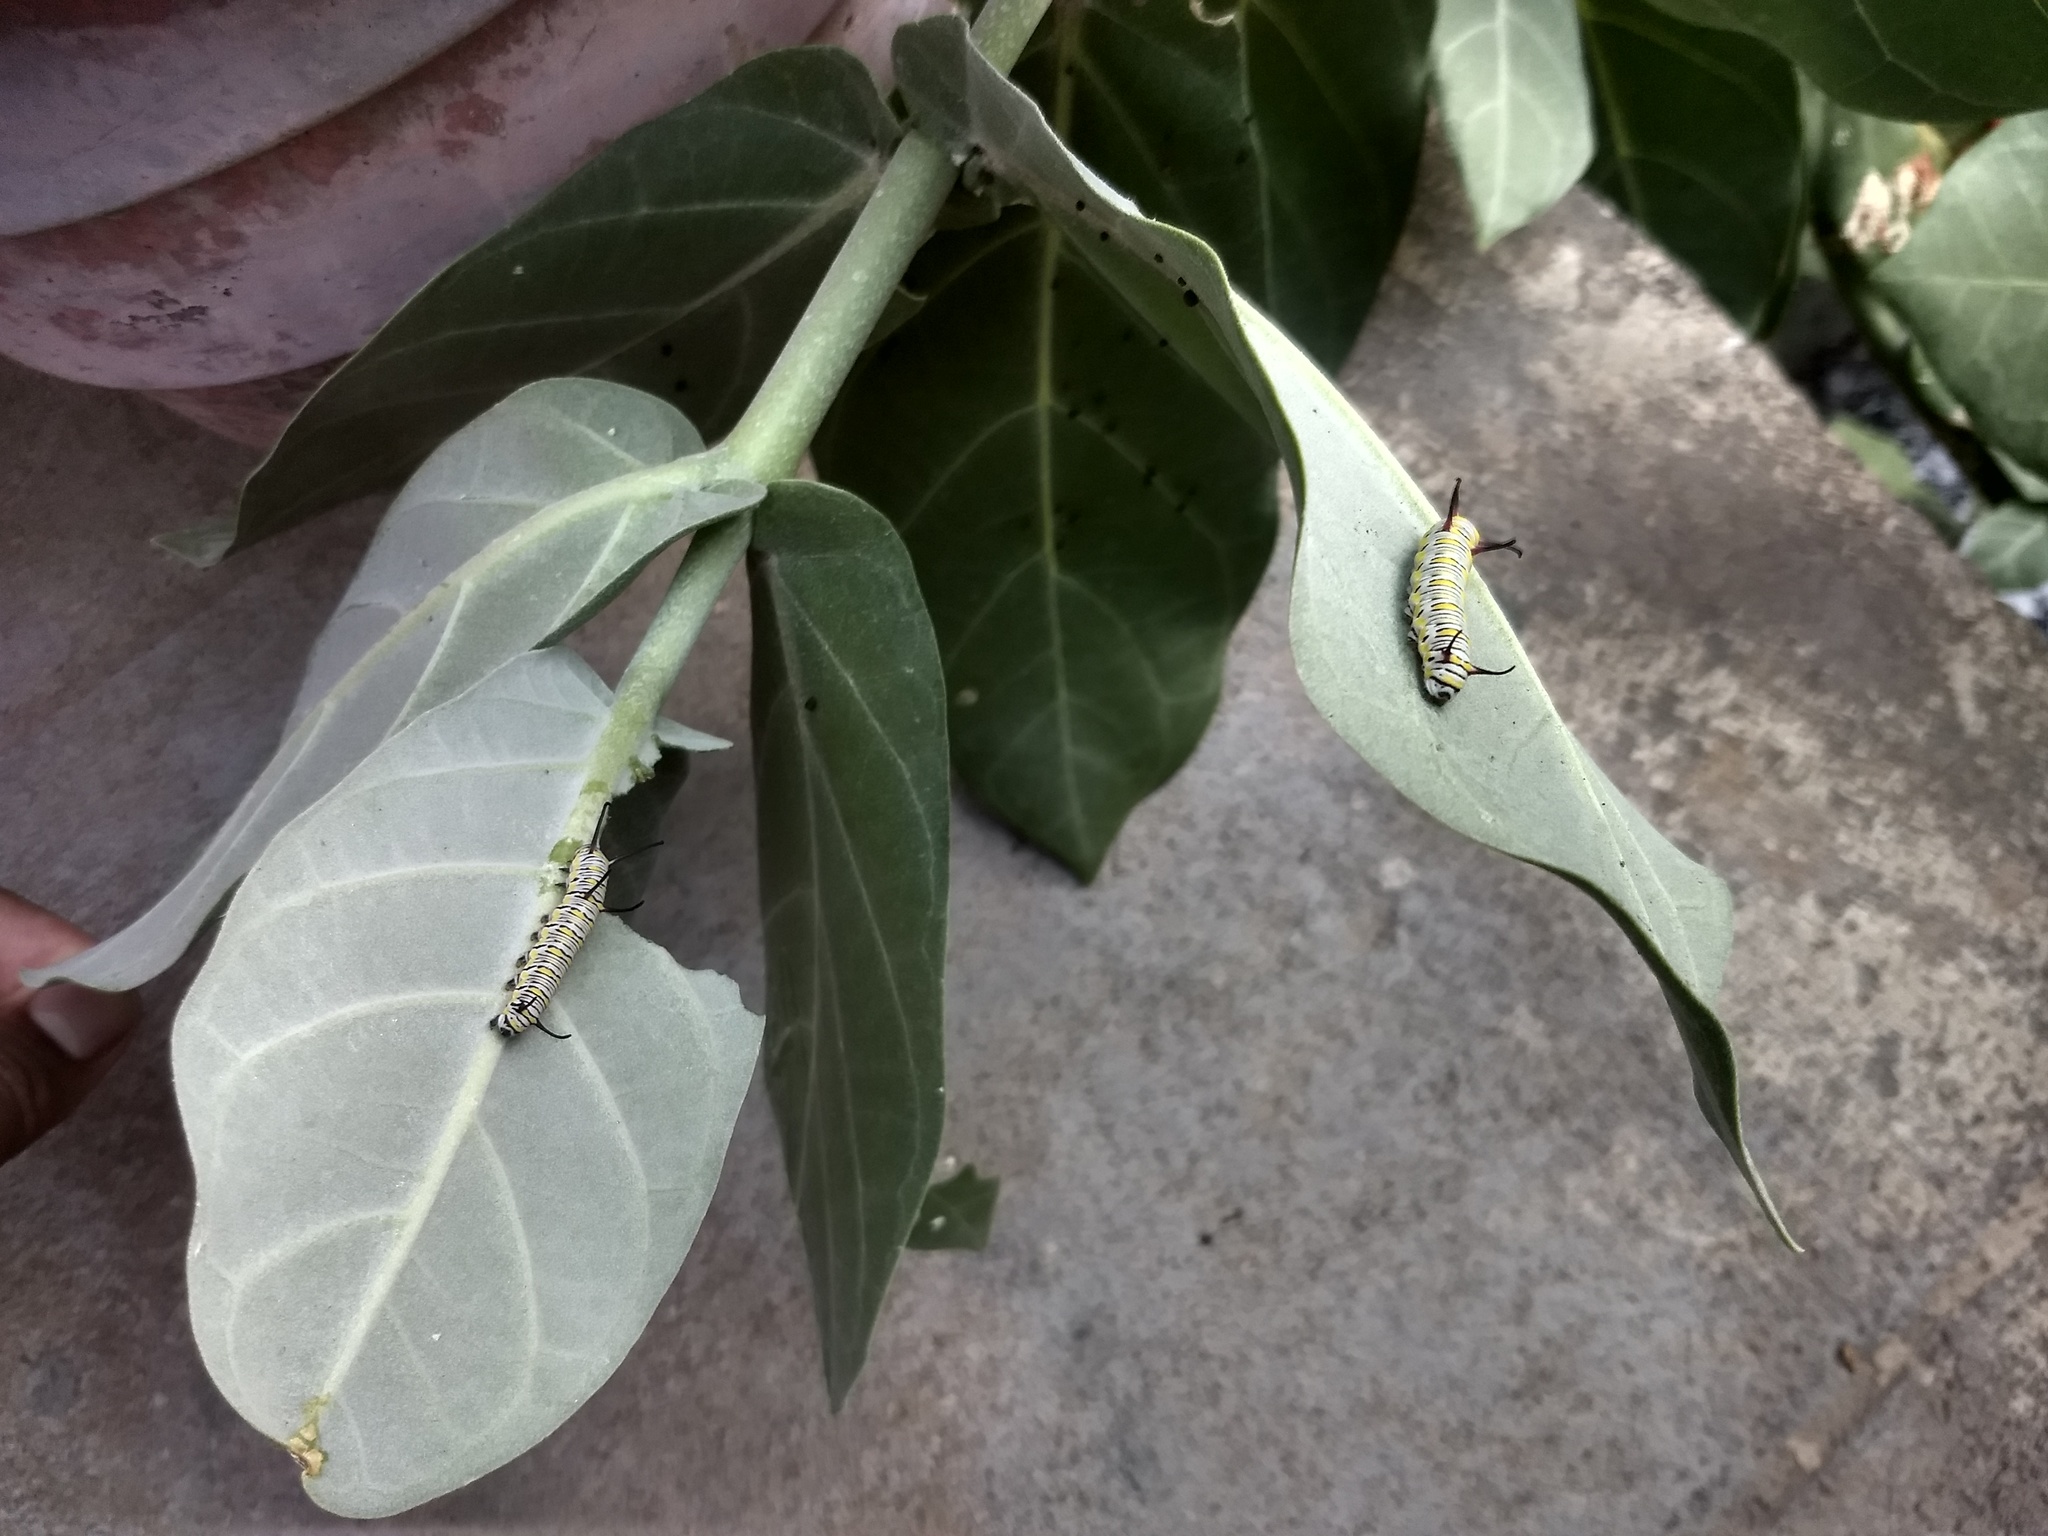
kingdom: Animalia
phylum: Arthropoda
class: Insecta
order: Lepidoptera
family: Nymphalidae
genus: Danaus
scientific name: Danaus chrysippus
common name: Plain tiger
